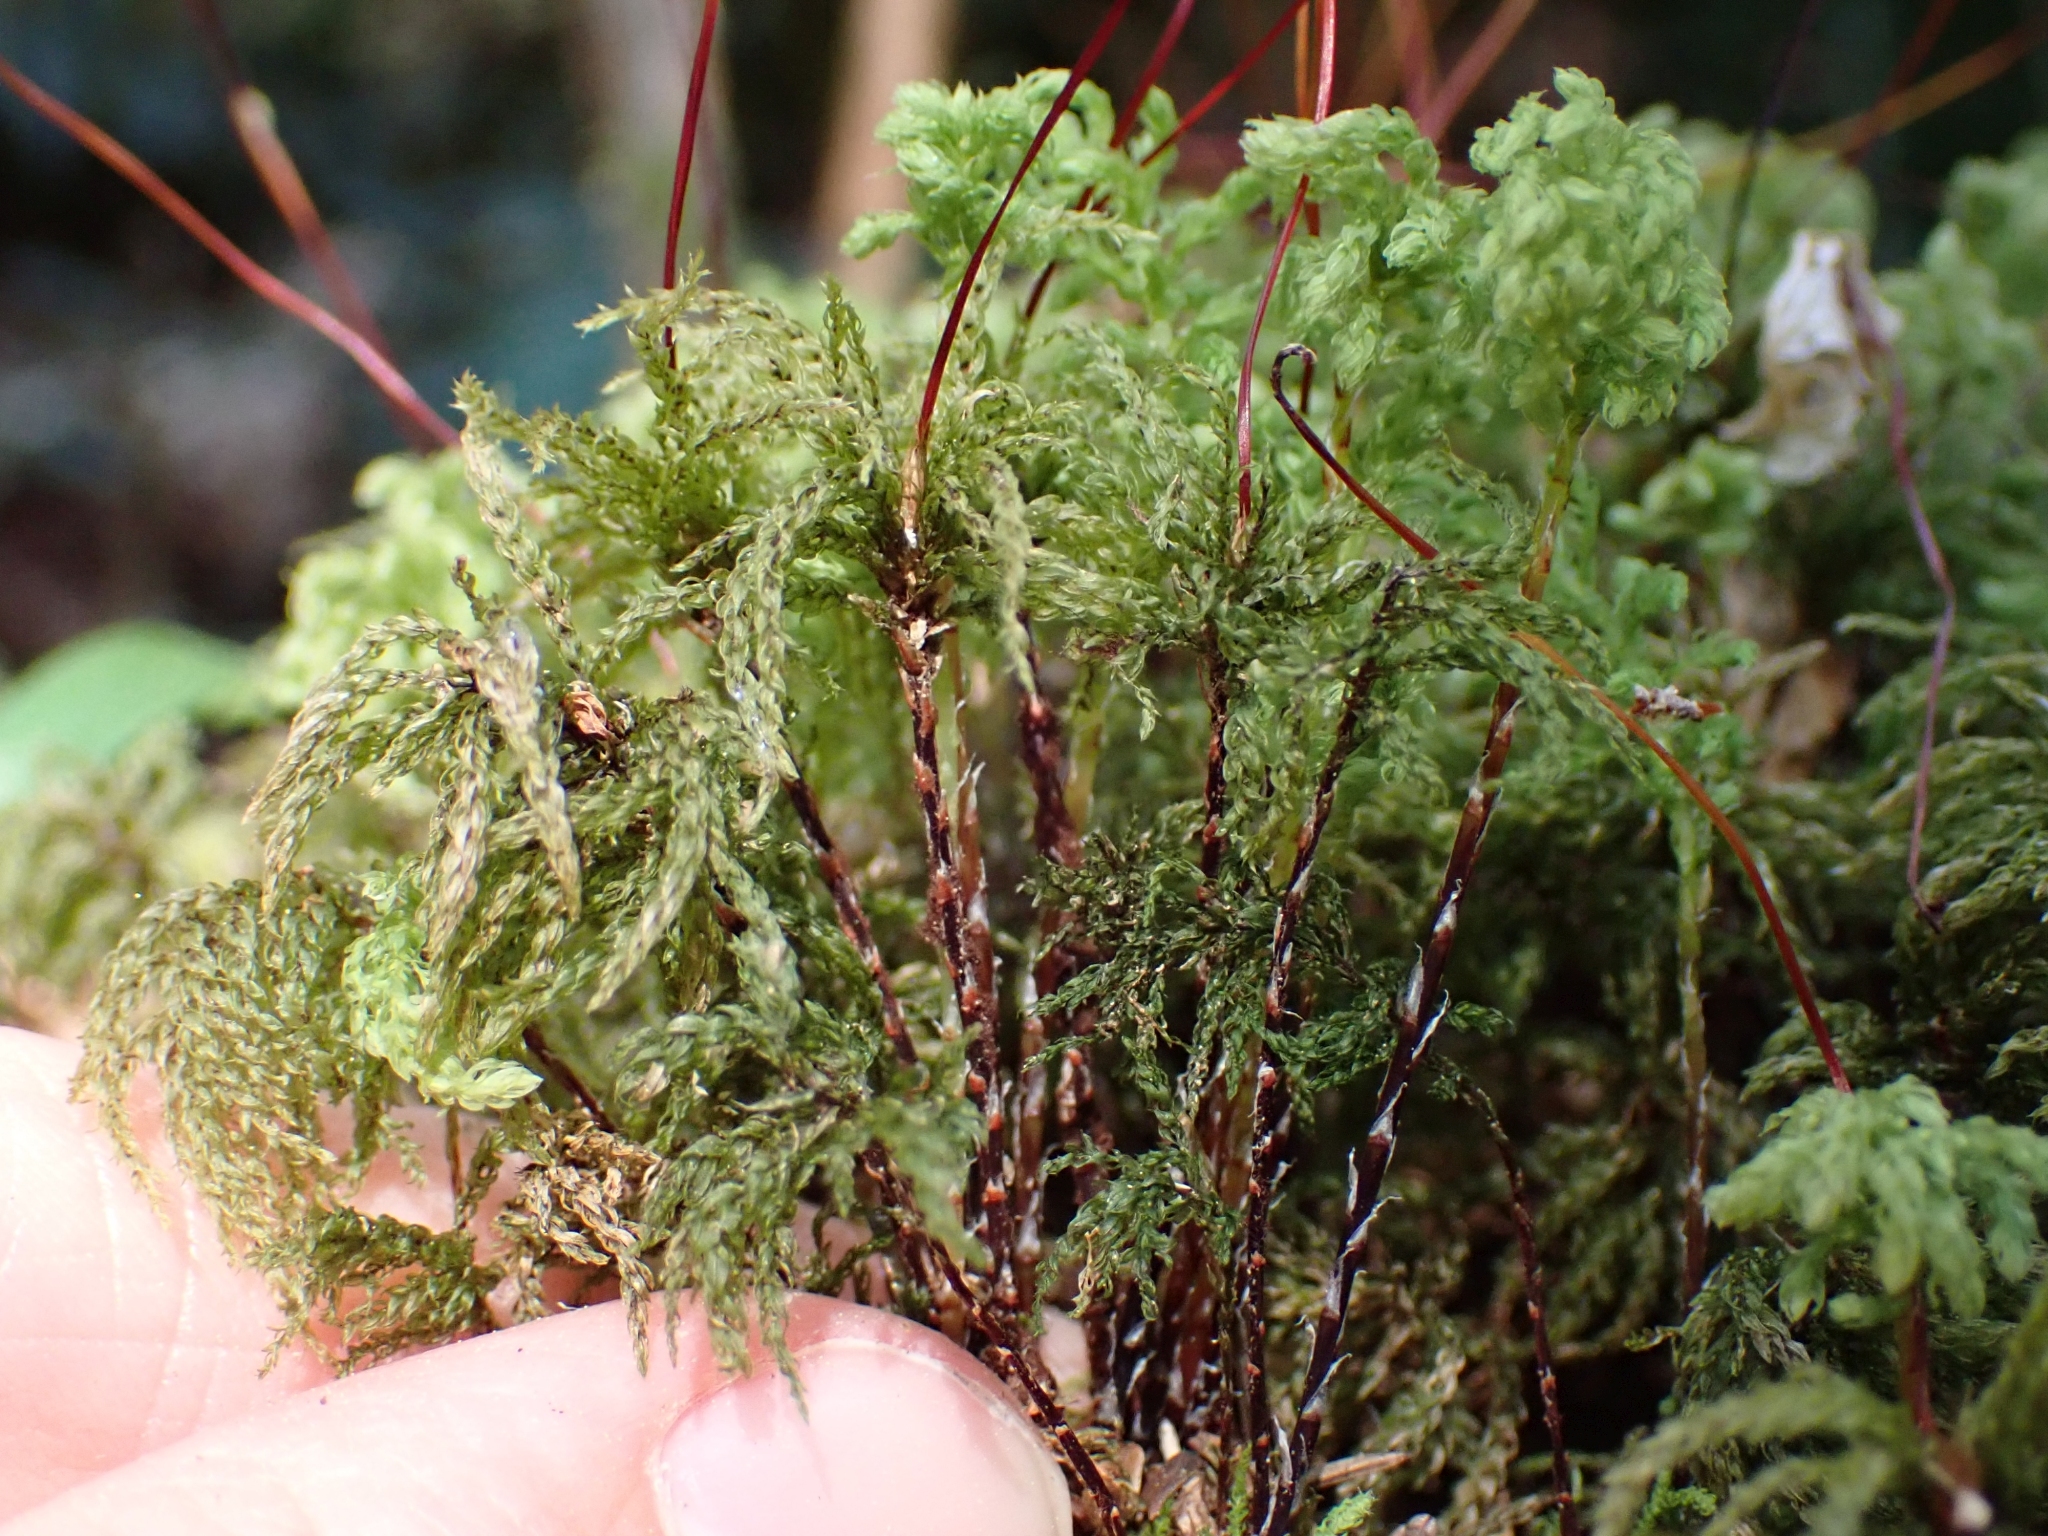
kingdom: Plantae
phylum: Bryophyta
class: Bryopsida
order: Bryales
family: Mniaceae
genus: Leucolepis
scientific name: Leucolepis acanthoneura
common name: Leucolepis umbrella moss
